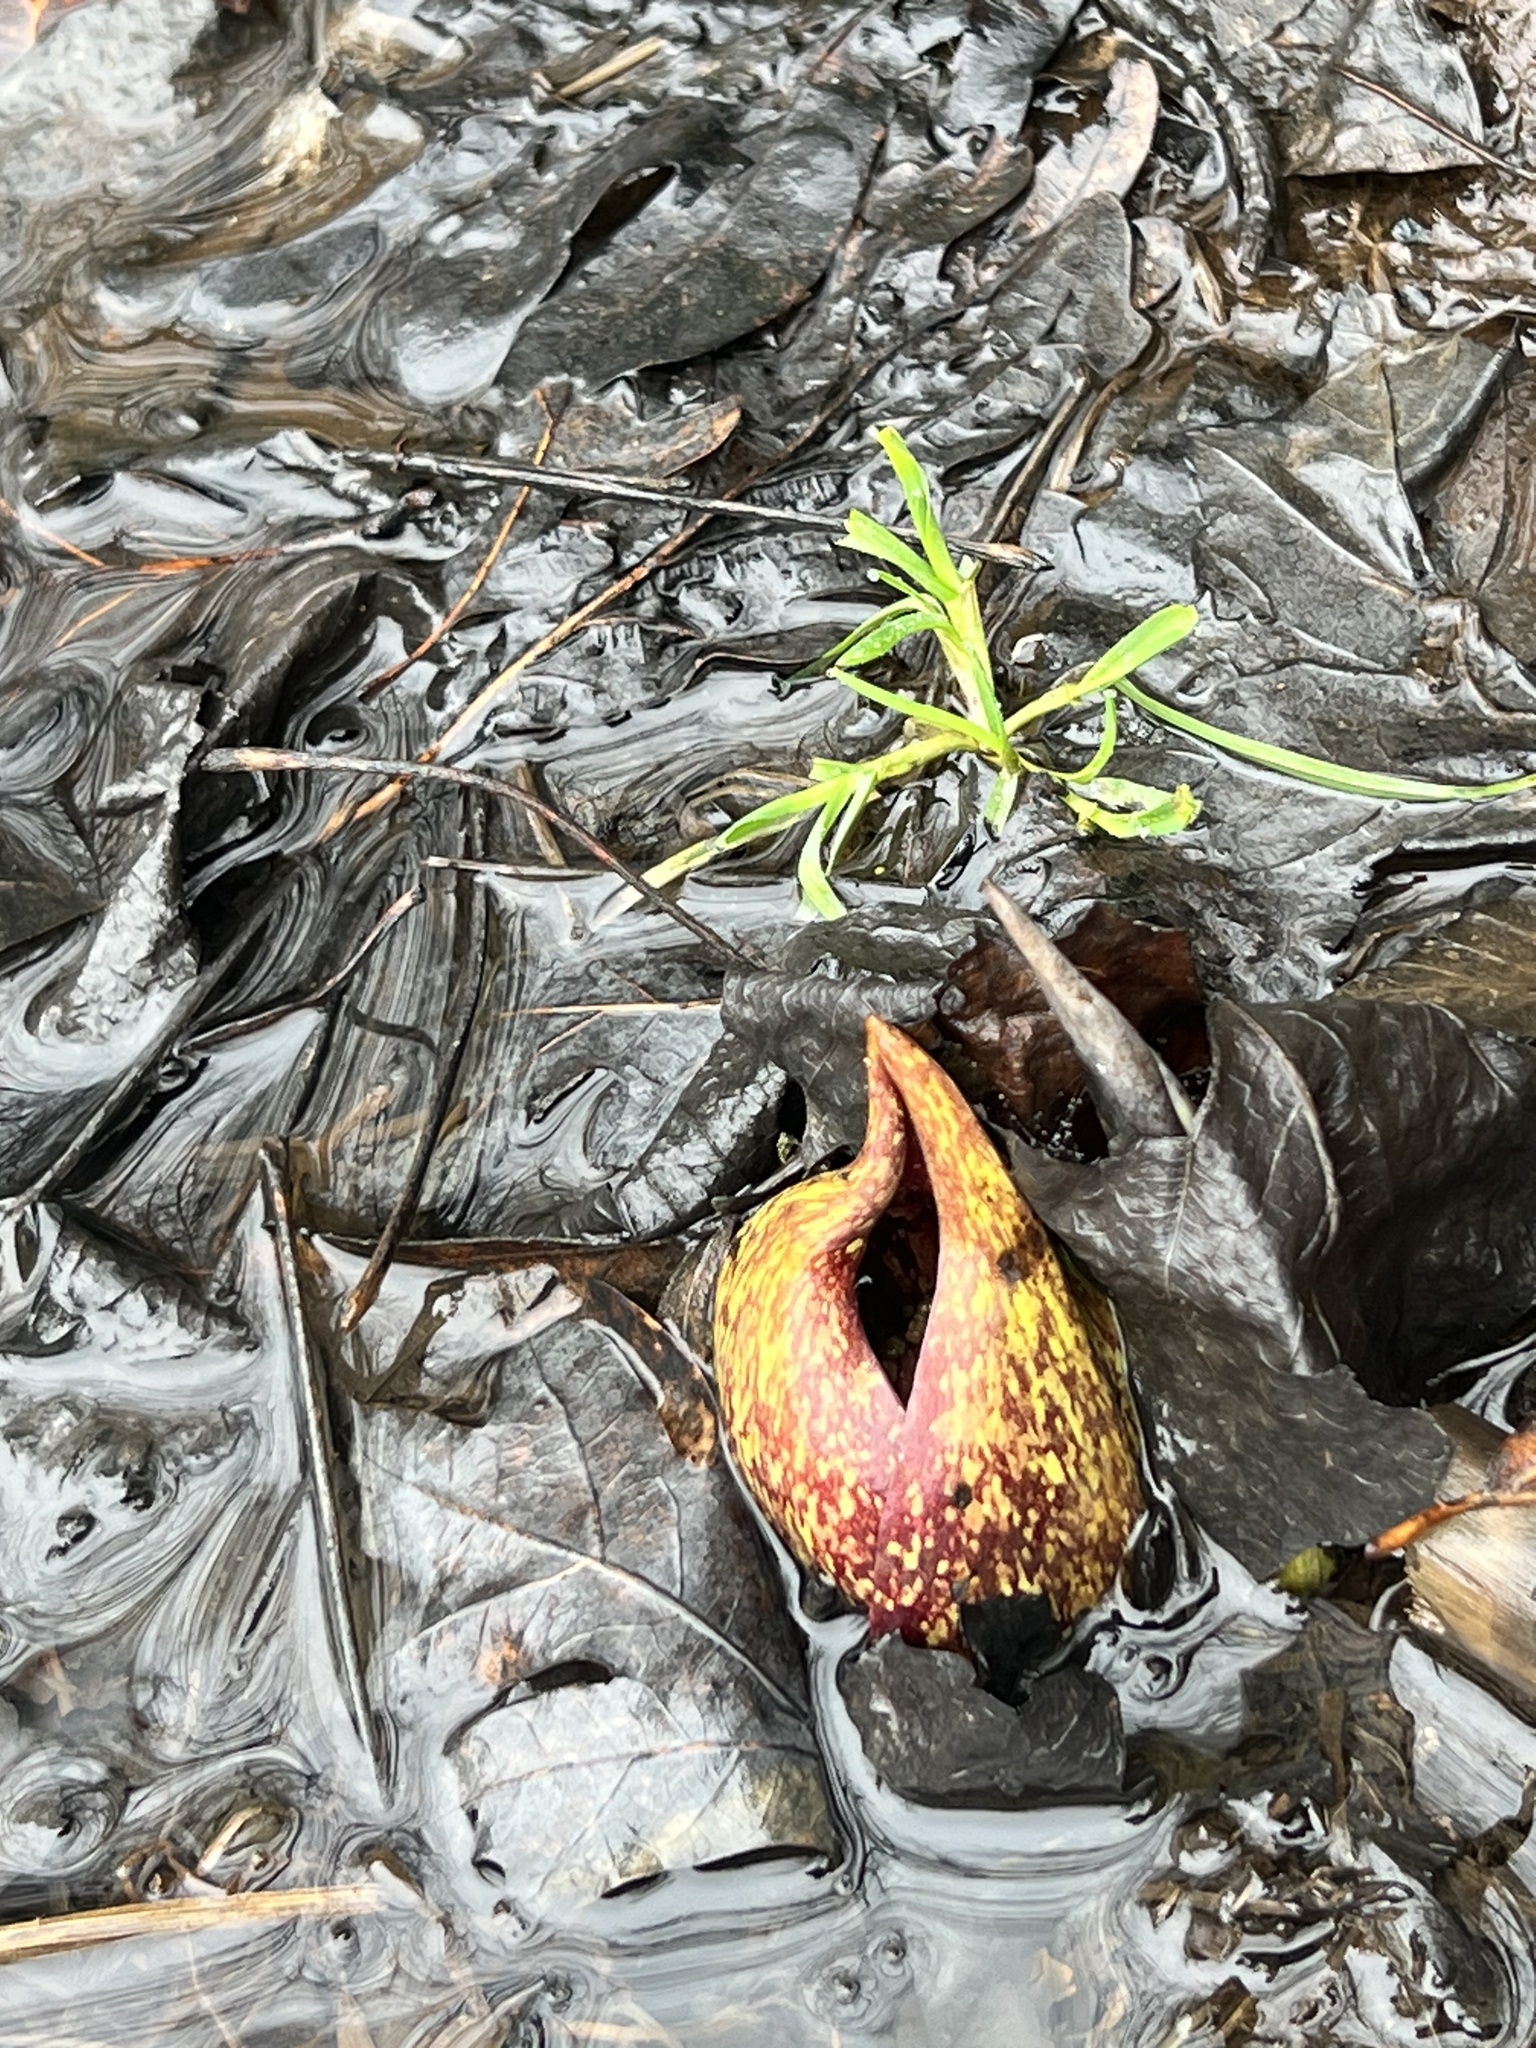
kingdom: Plantae
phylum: Tracheophyta
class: Liliopsida
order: Alismatales
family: Araceae
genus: Symplocarpus
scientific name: Symplocarpus foetidus
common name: Eastern skunk cabbage
